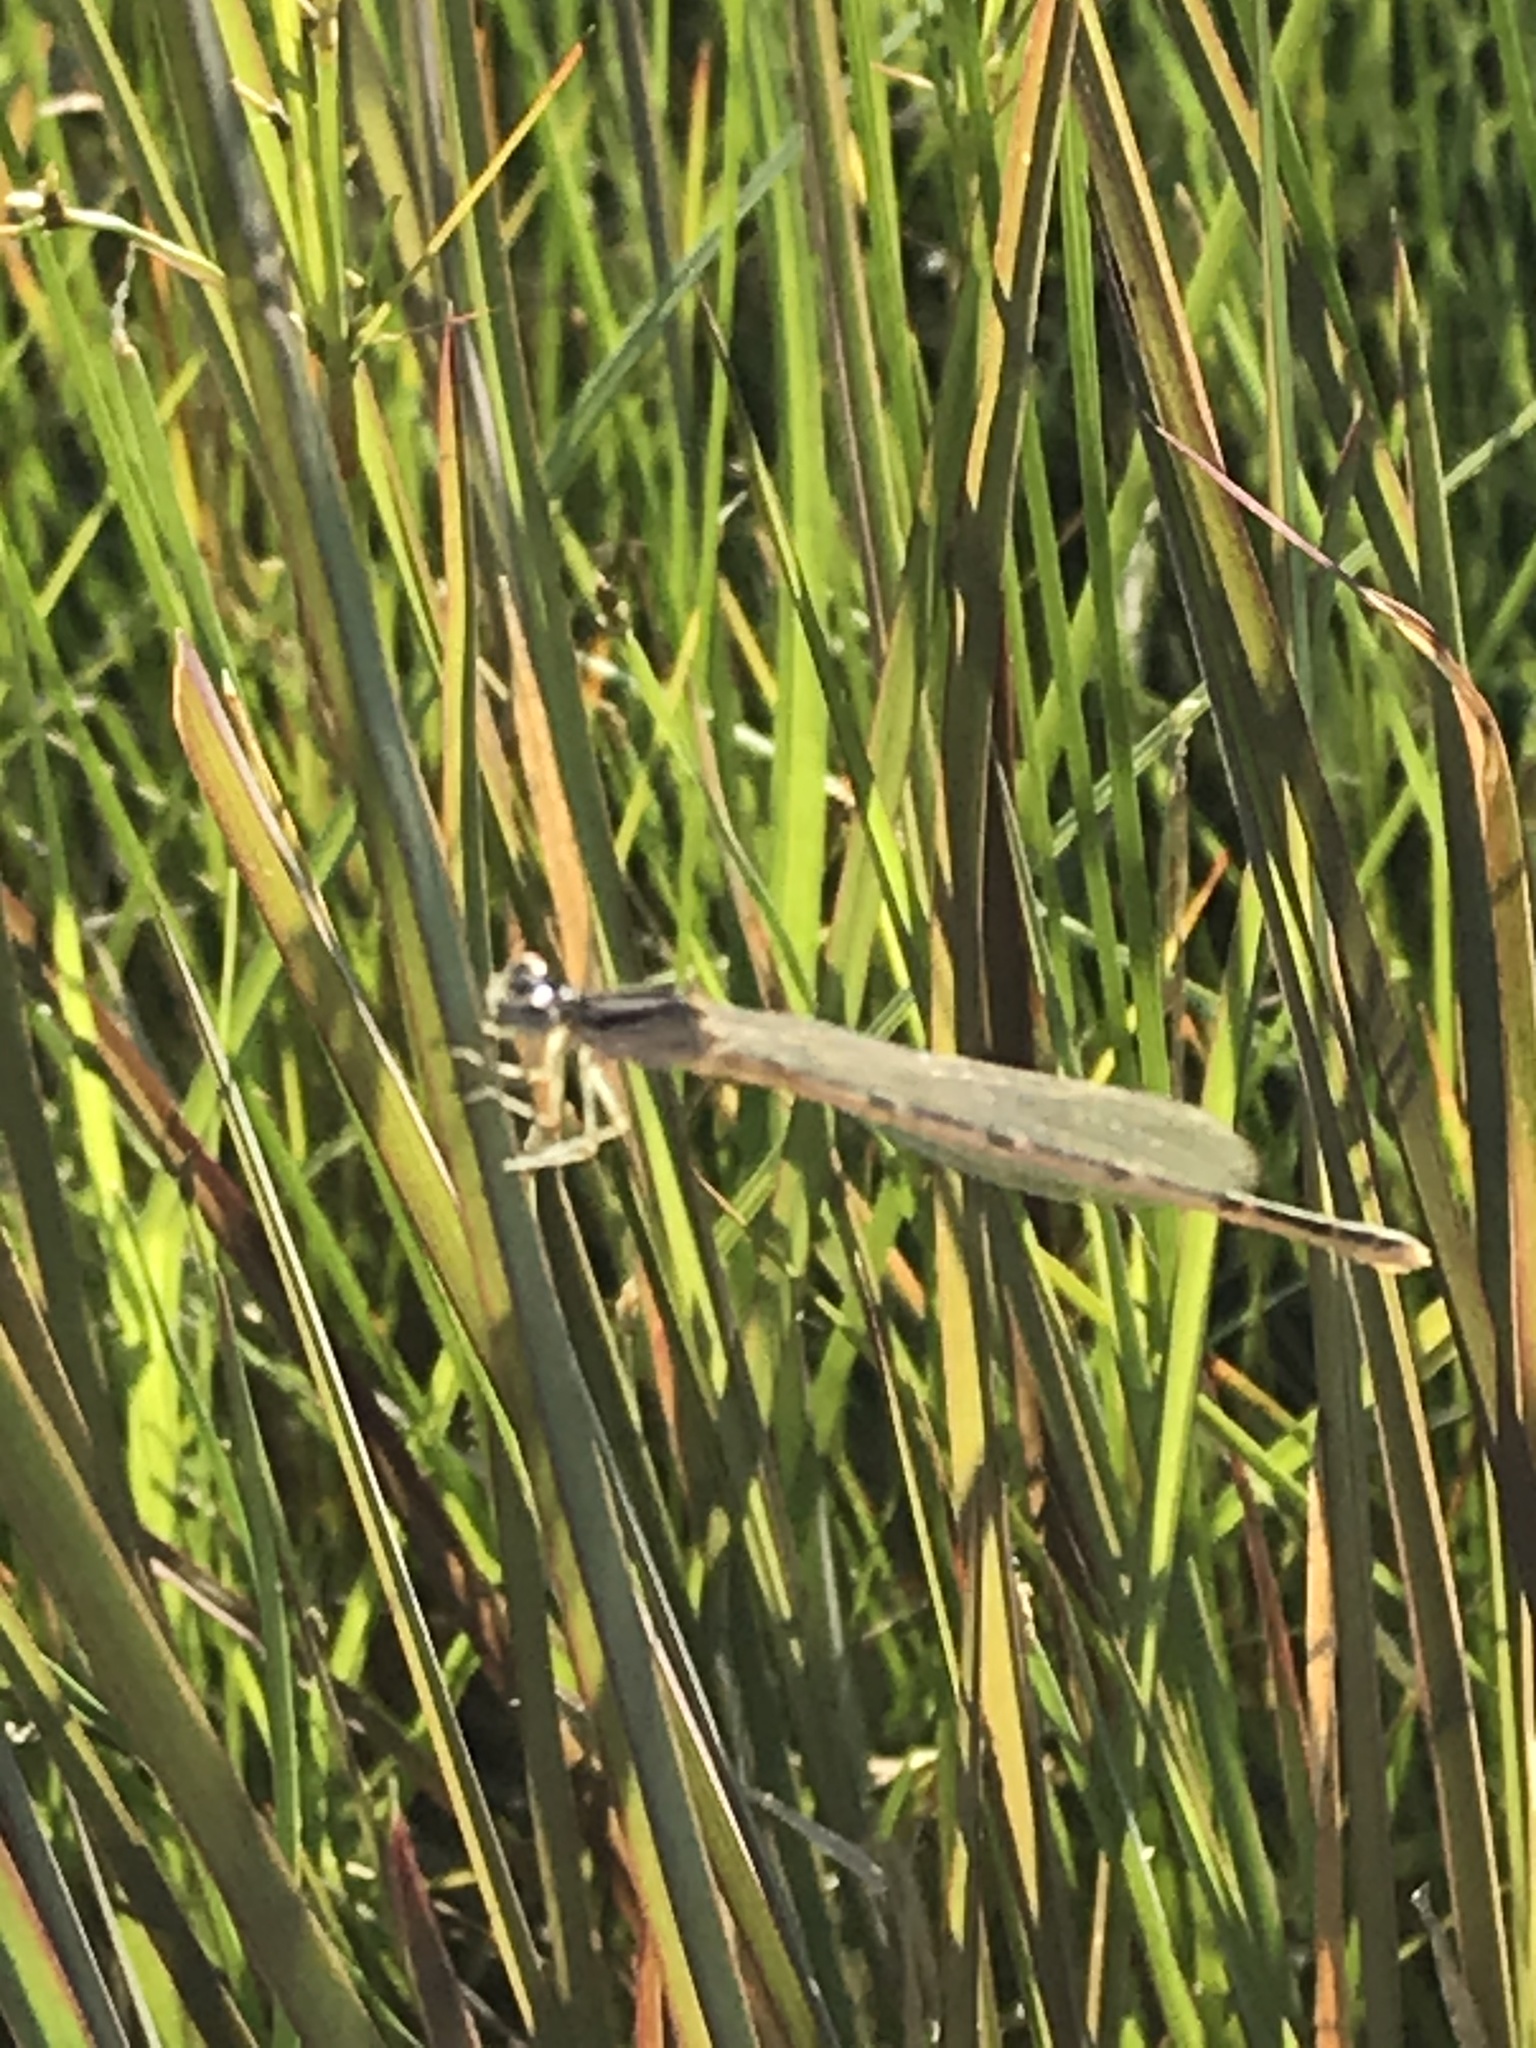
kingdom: Animalia
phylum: Arthropoda
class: Insecta
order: Odonata
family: Coenagrionidae
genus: Enallagma
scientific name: Enallagma civile
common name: Damselfly
